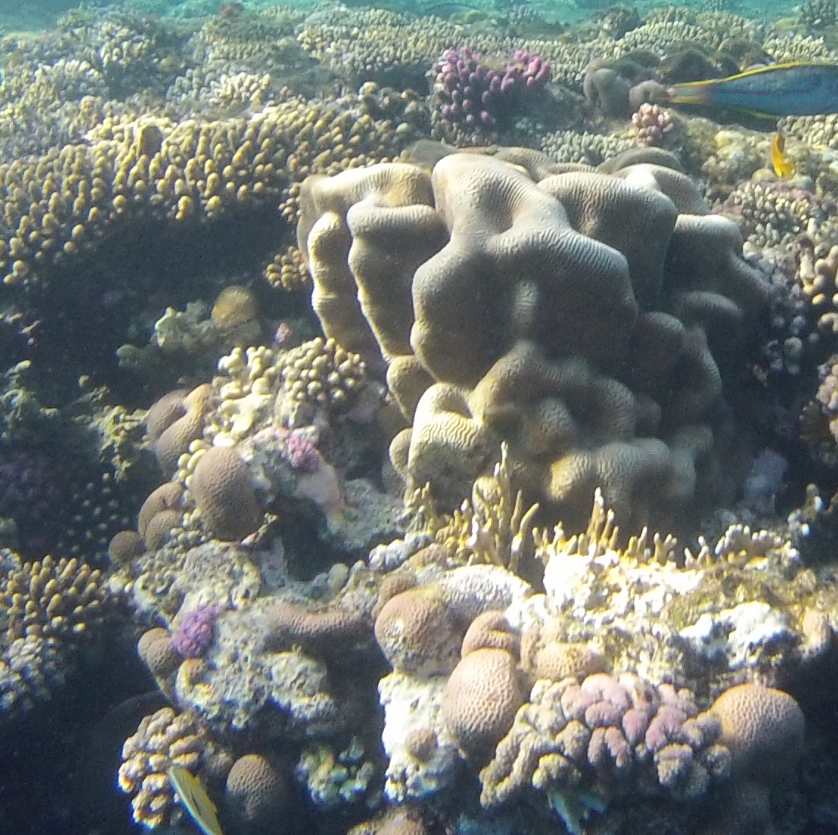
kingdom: Animalia
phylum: Cnidaria
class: Anthozoa
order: Scleractinia
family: Merulinidae
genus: Leptoria
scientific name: Leptoria phrygia
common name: Least valley coral
